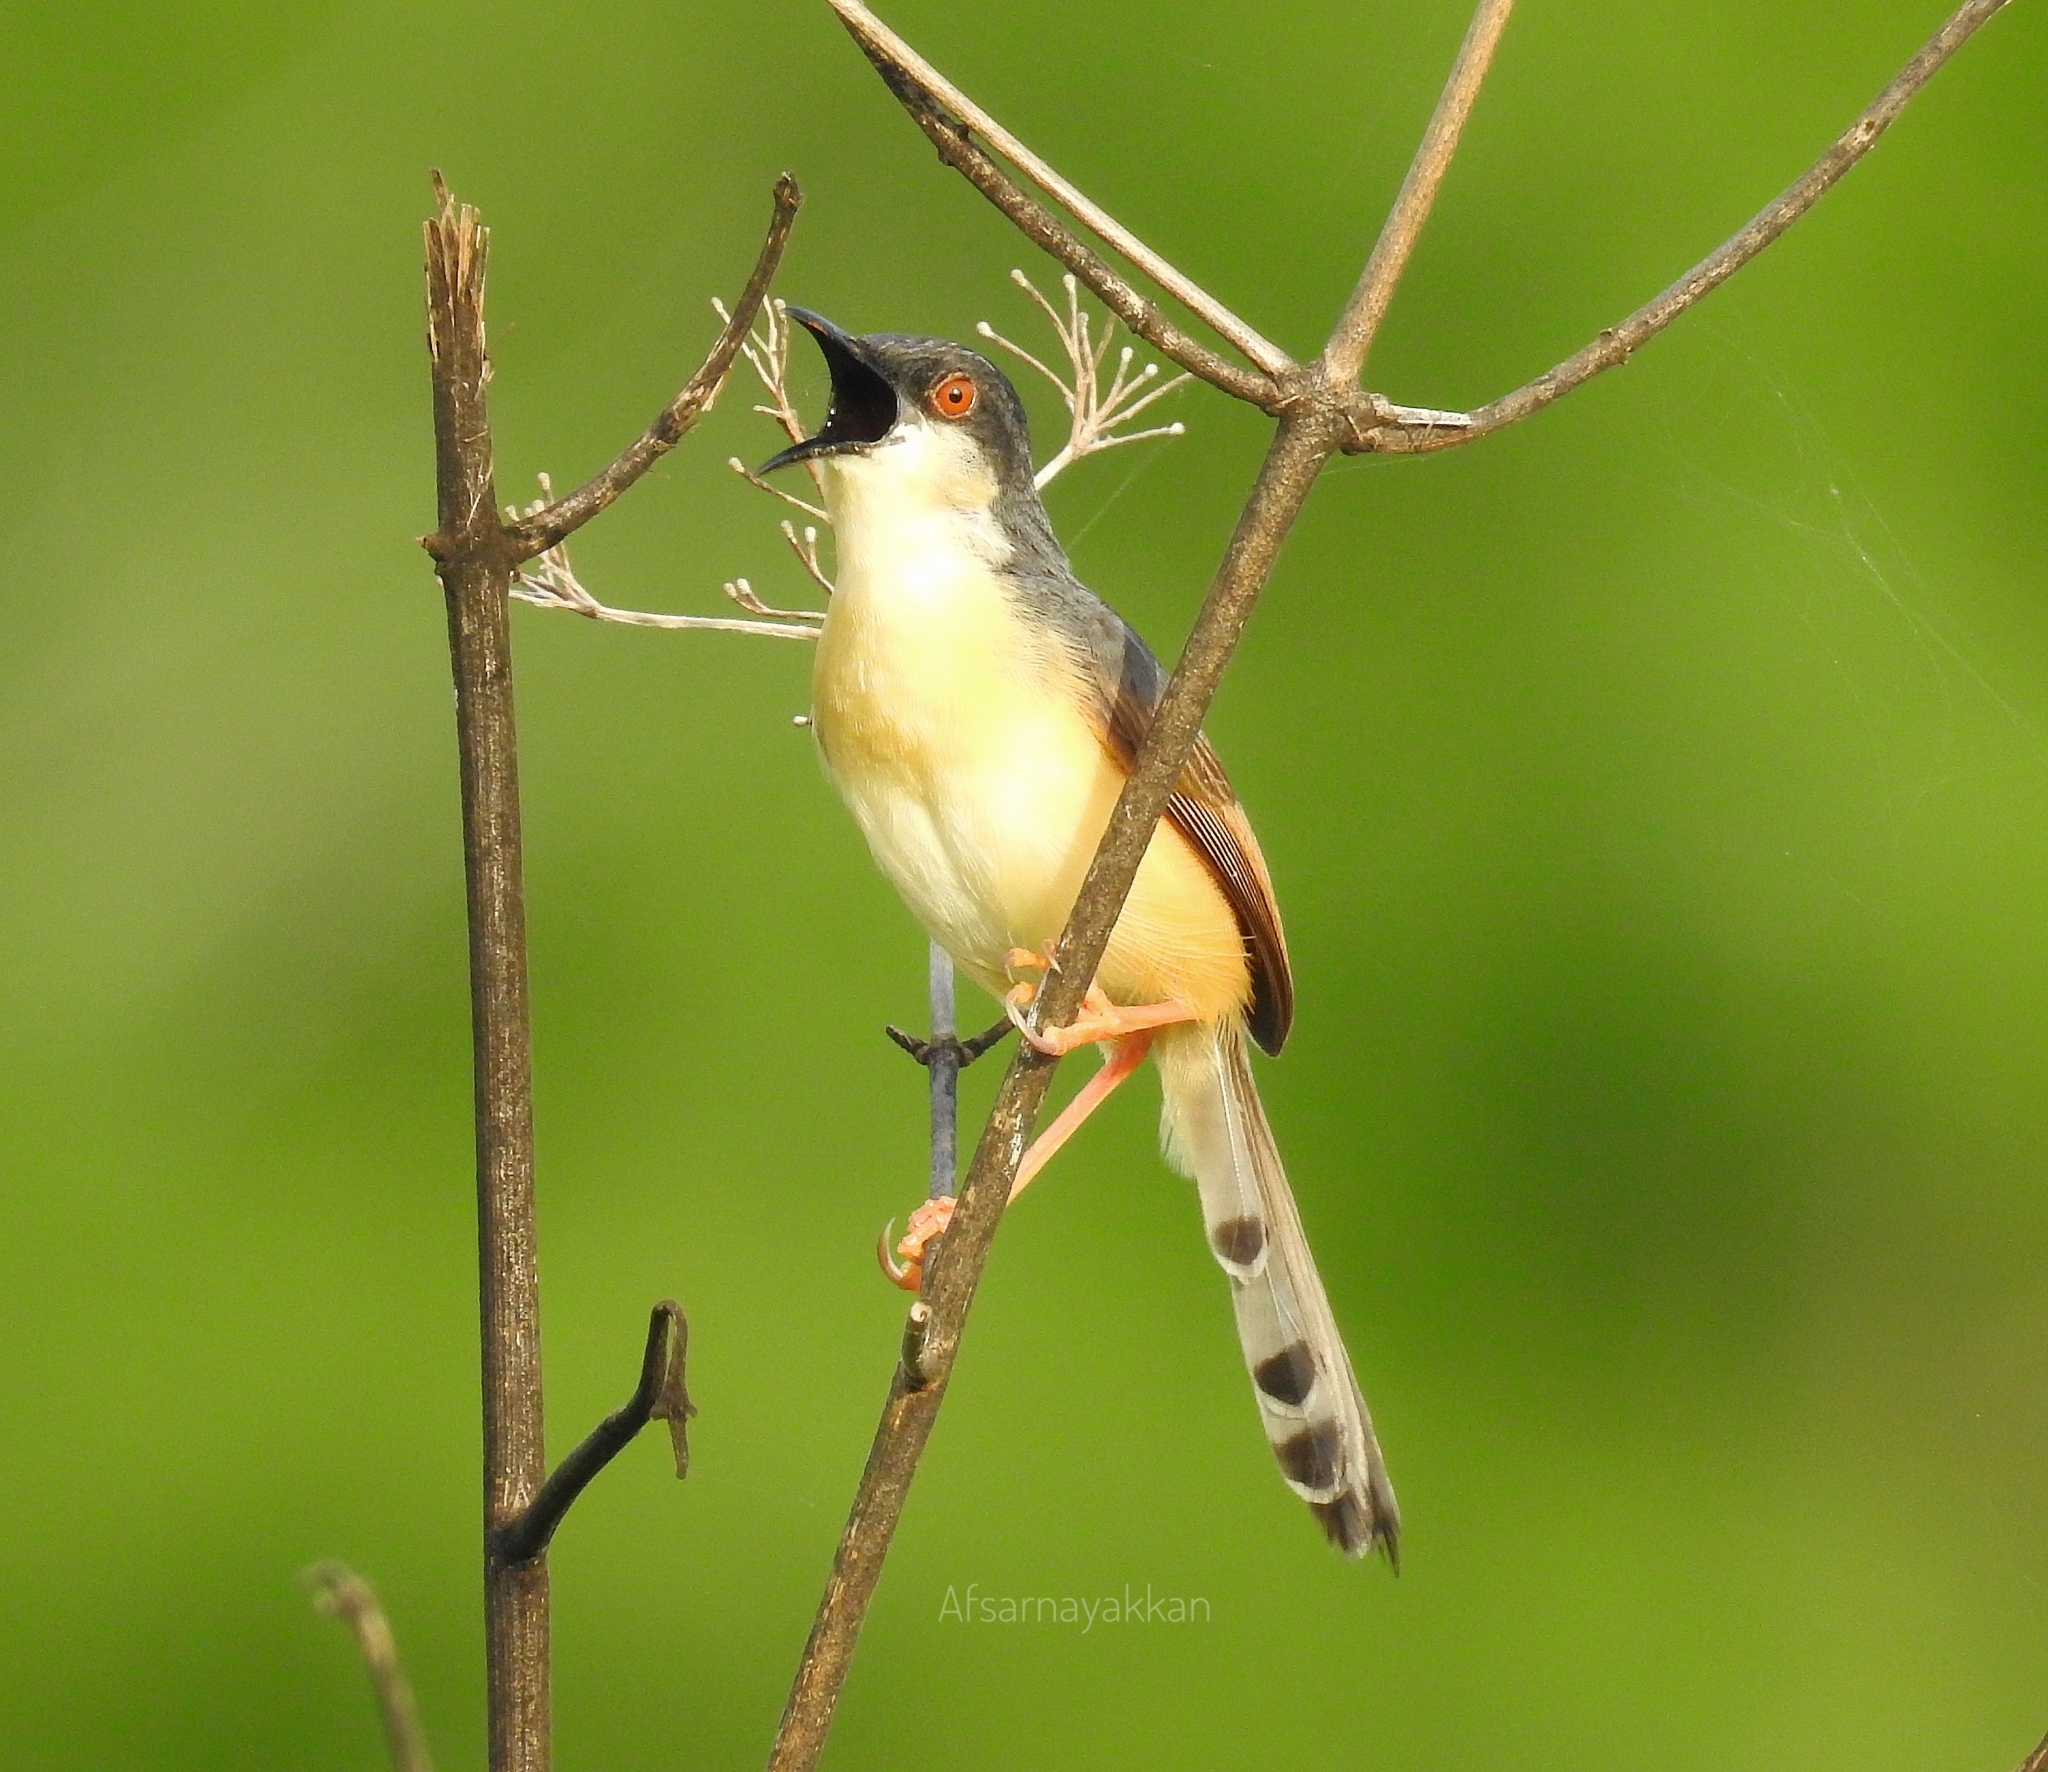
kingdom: Animalia
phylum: Chordata
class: Aves
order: Passeriformes
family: Cisticolidae
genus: Prinia
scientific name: Prinia socialis
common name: Ashy prinia
